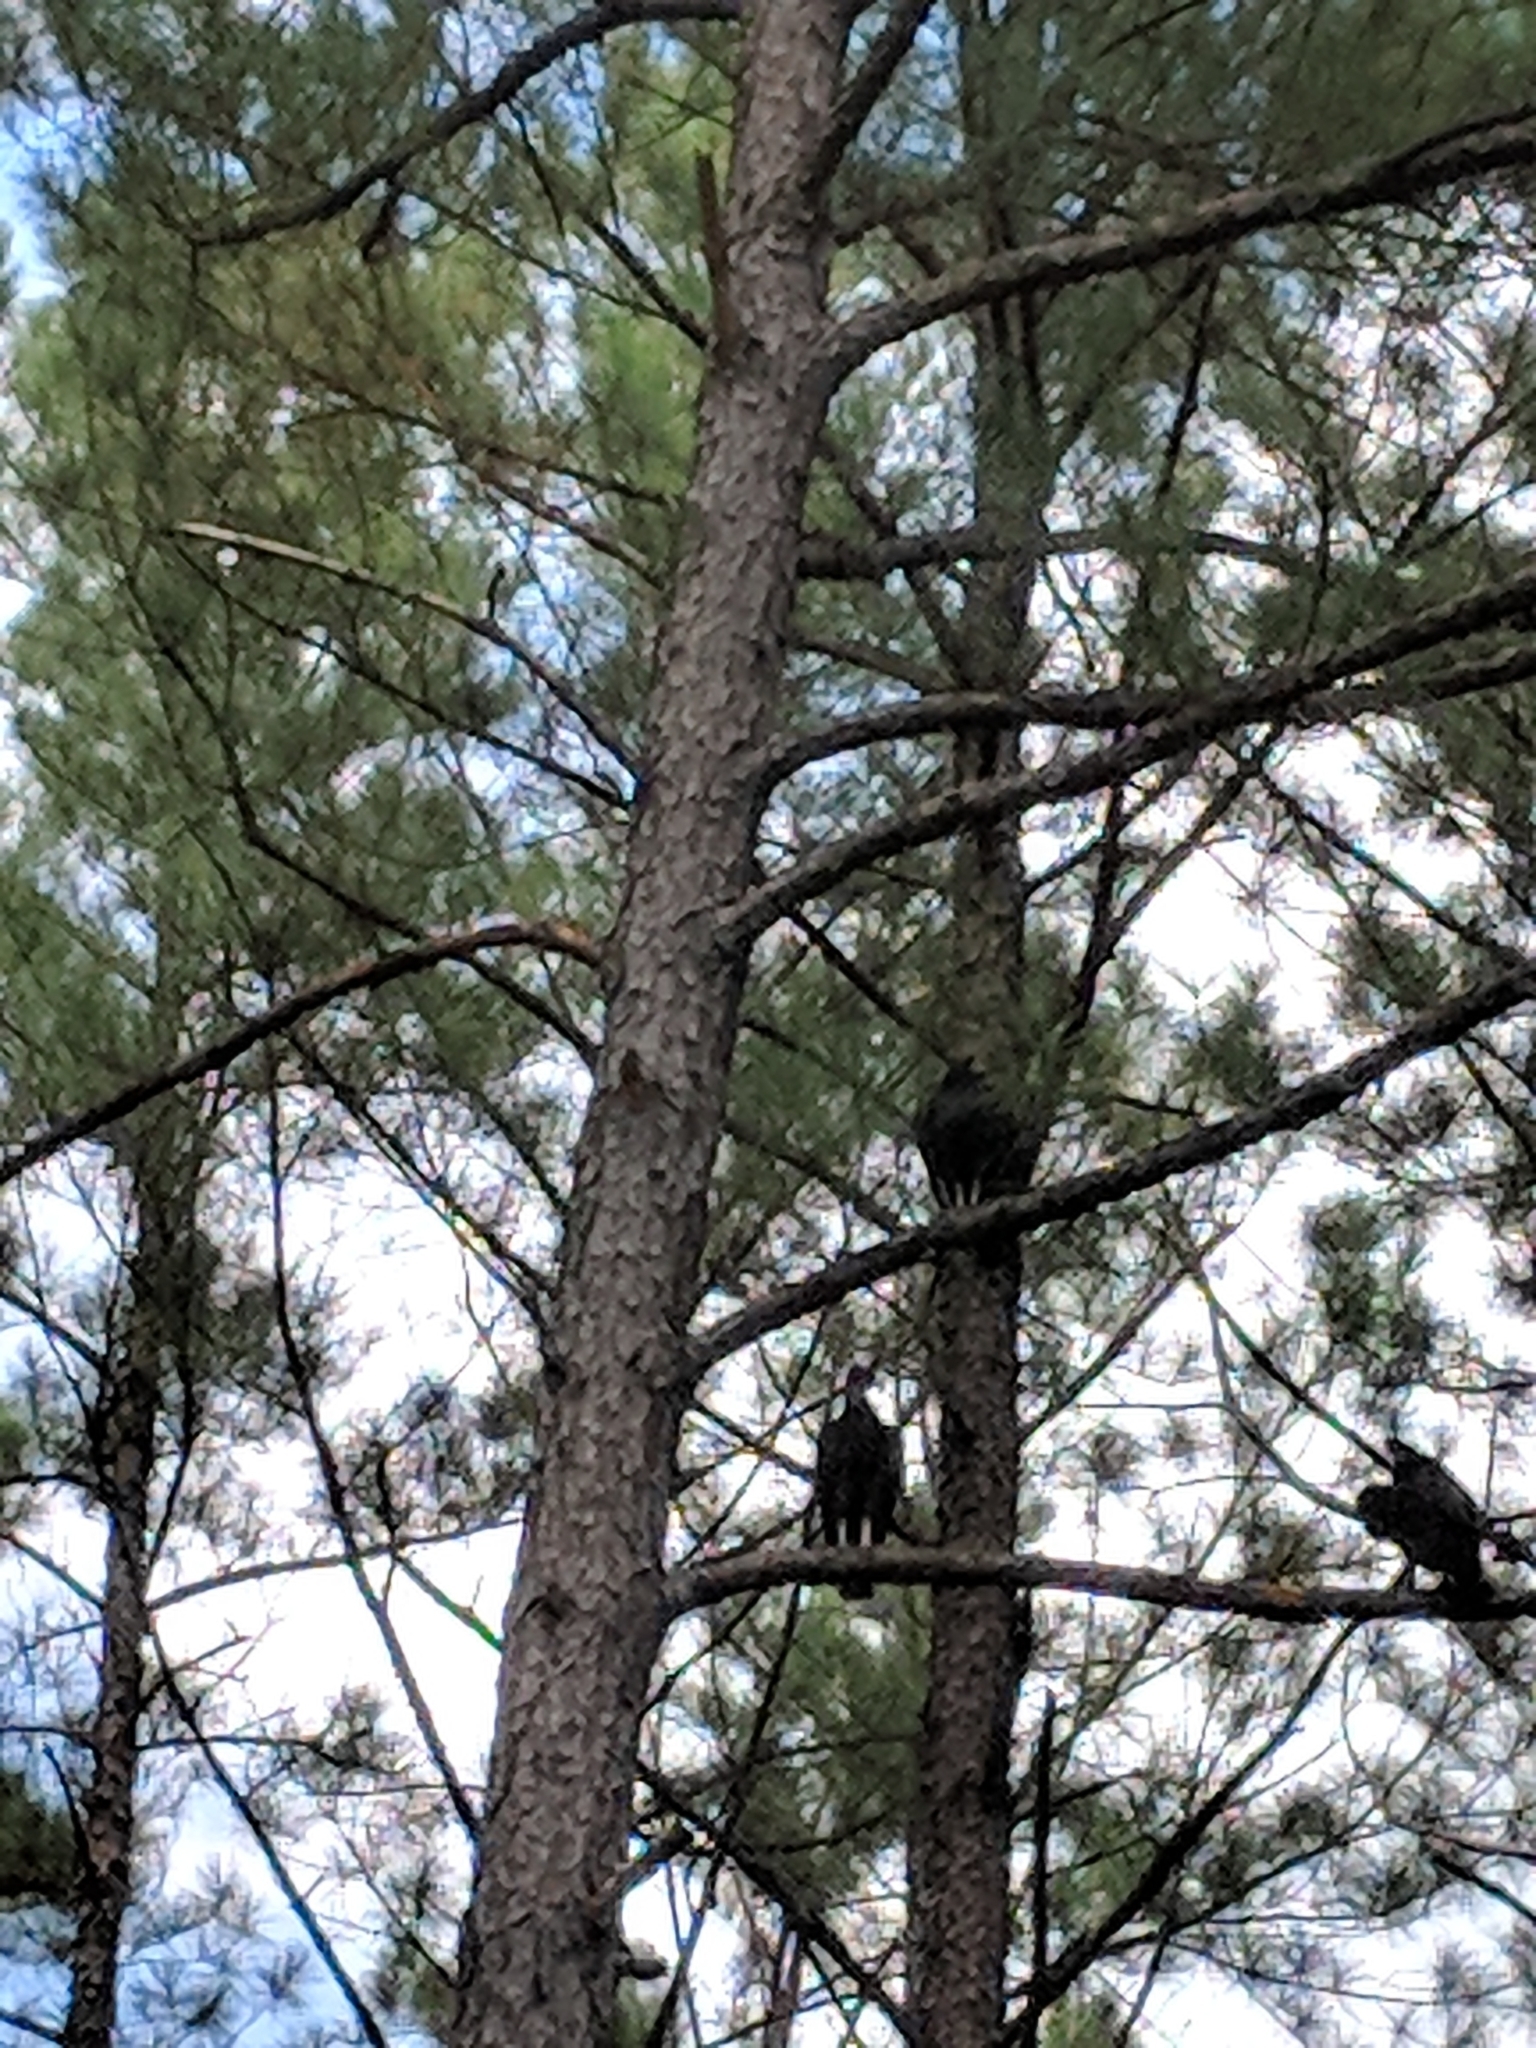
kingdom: Animalia
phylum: Chordata
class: Aves
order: Accipitriformes
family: Cathartidae
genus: Coragyps
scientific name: Coragyps atratus
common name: Black vulture
